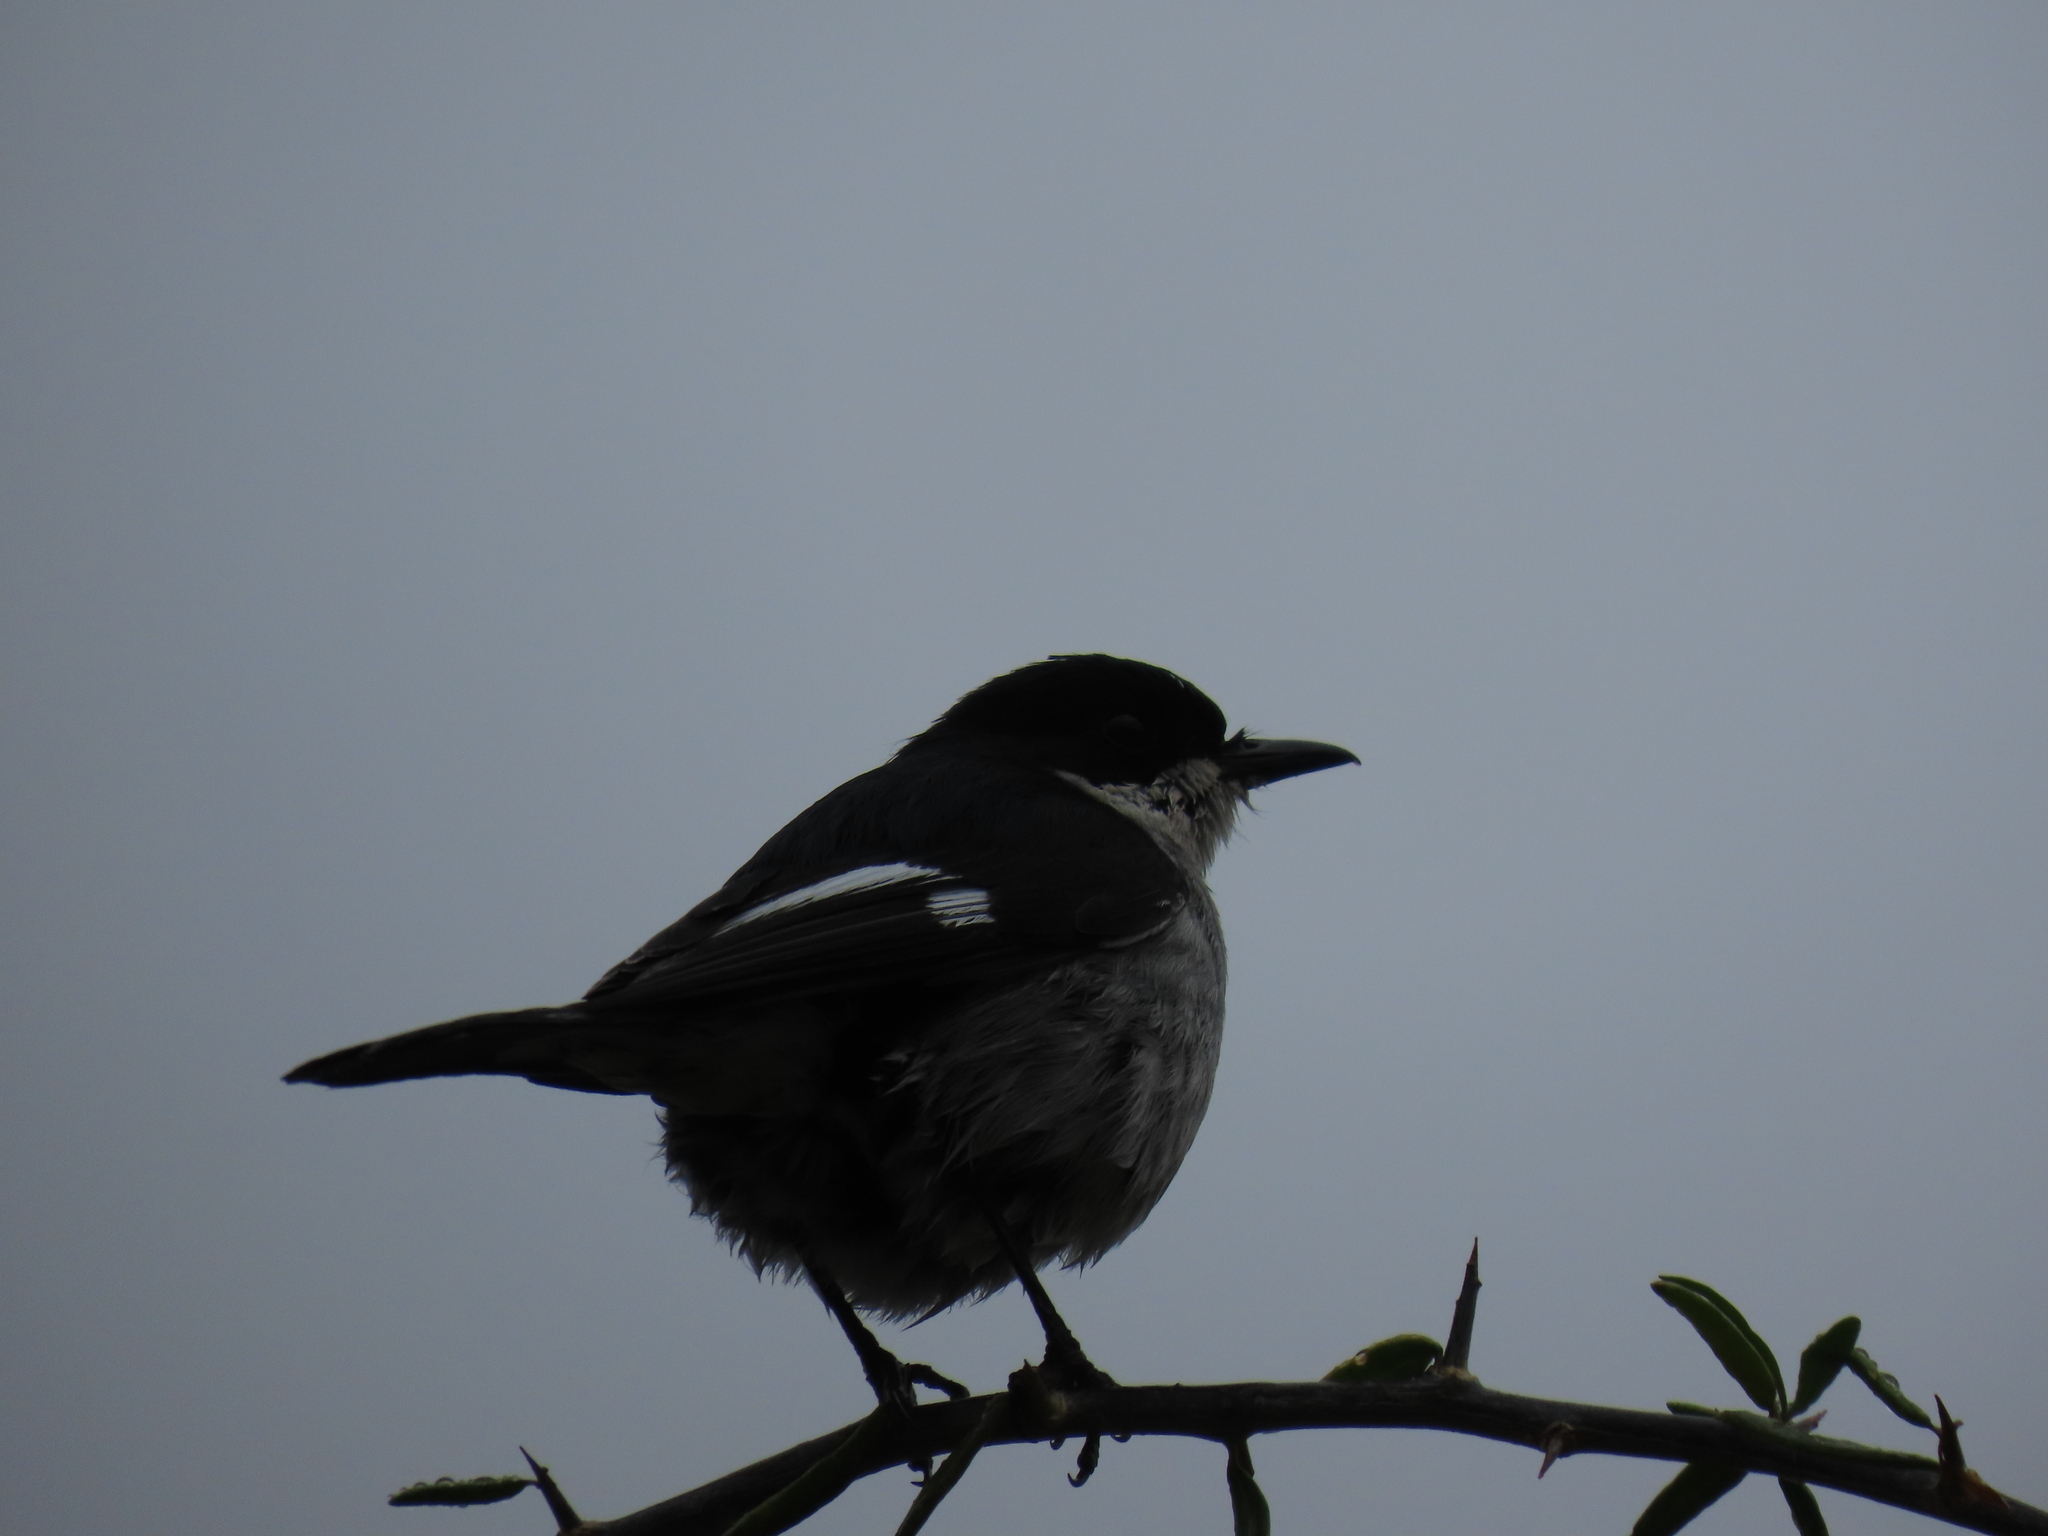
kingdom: Animalia
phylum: Chordata
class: Aves
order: Passeriformes
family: Muscicapidae
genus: Sigelus
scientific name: Sigelus silens
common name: Fiscal flycatcher
